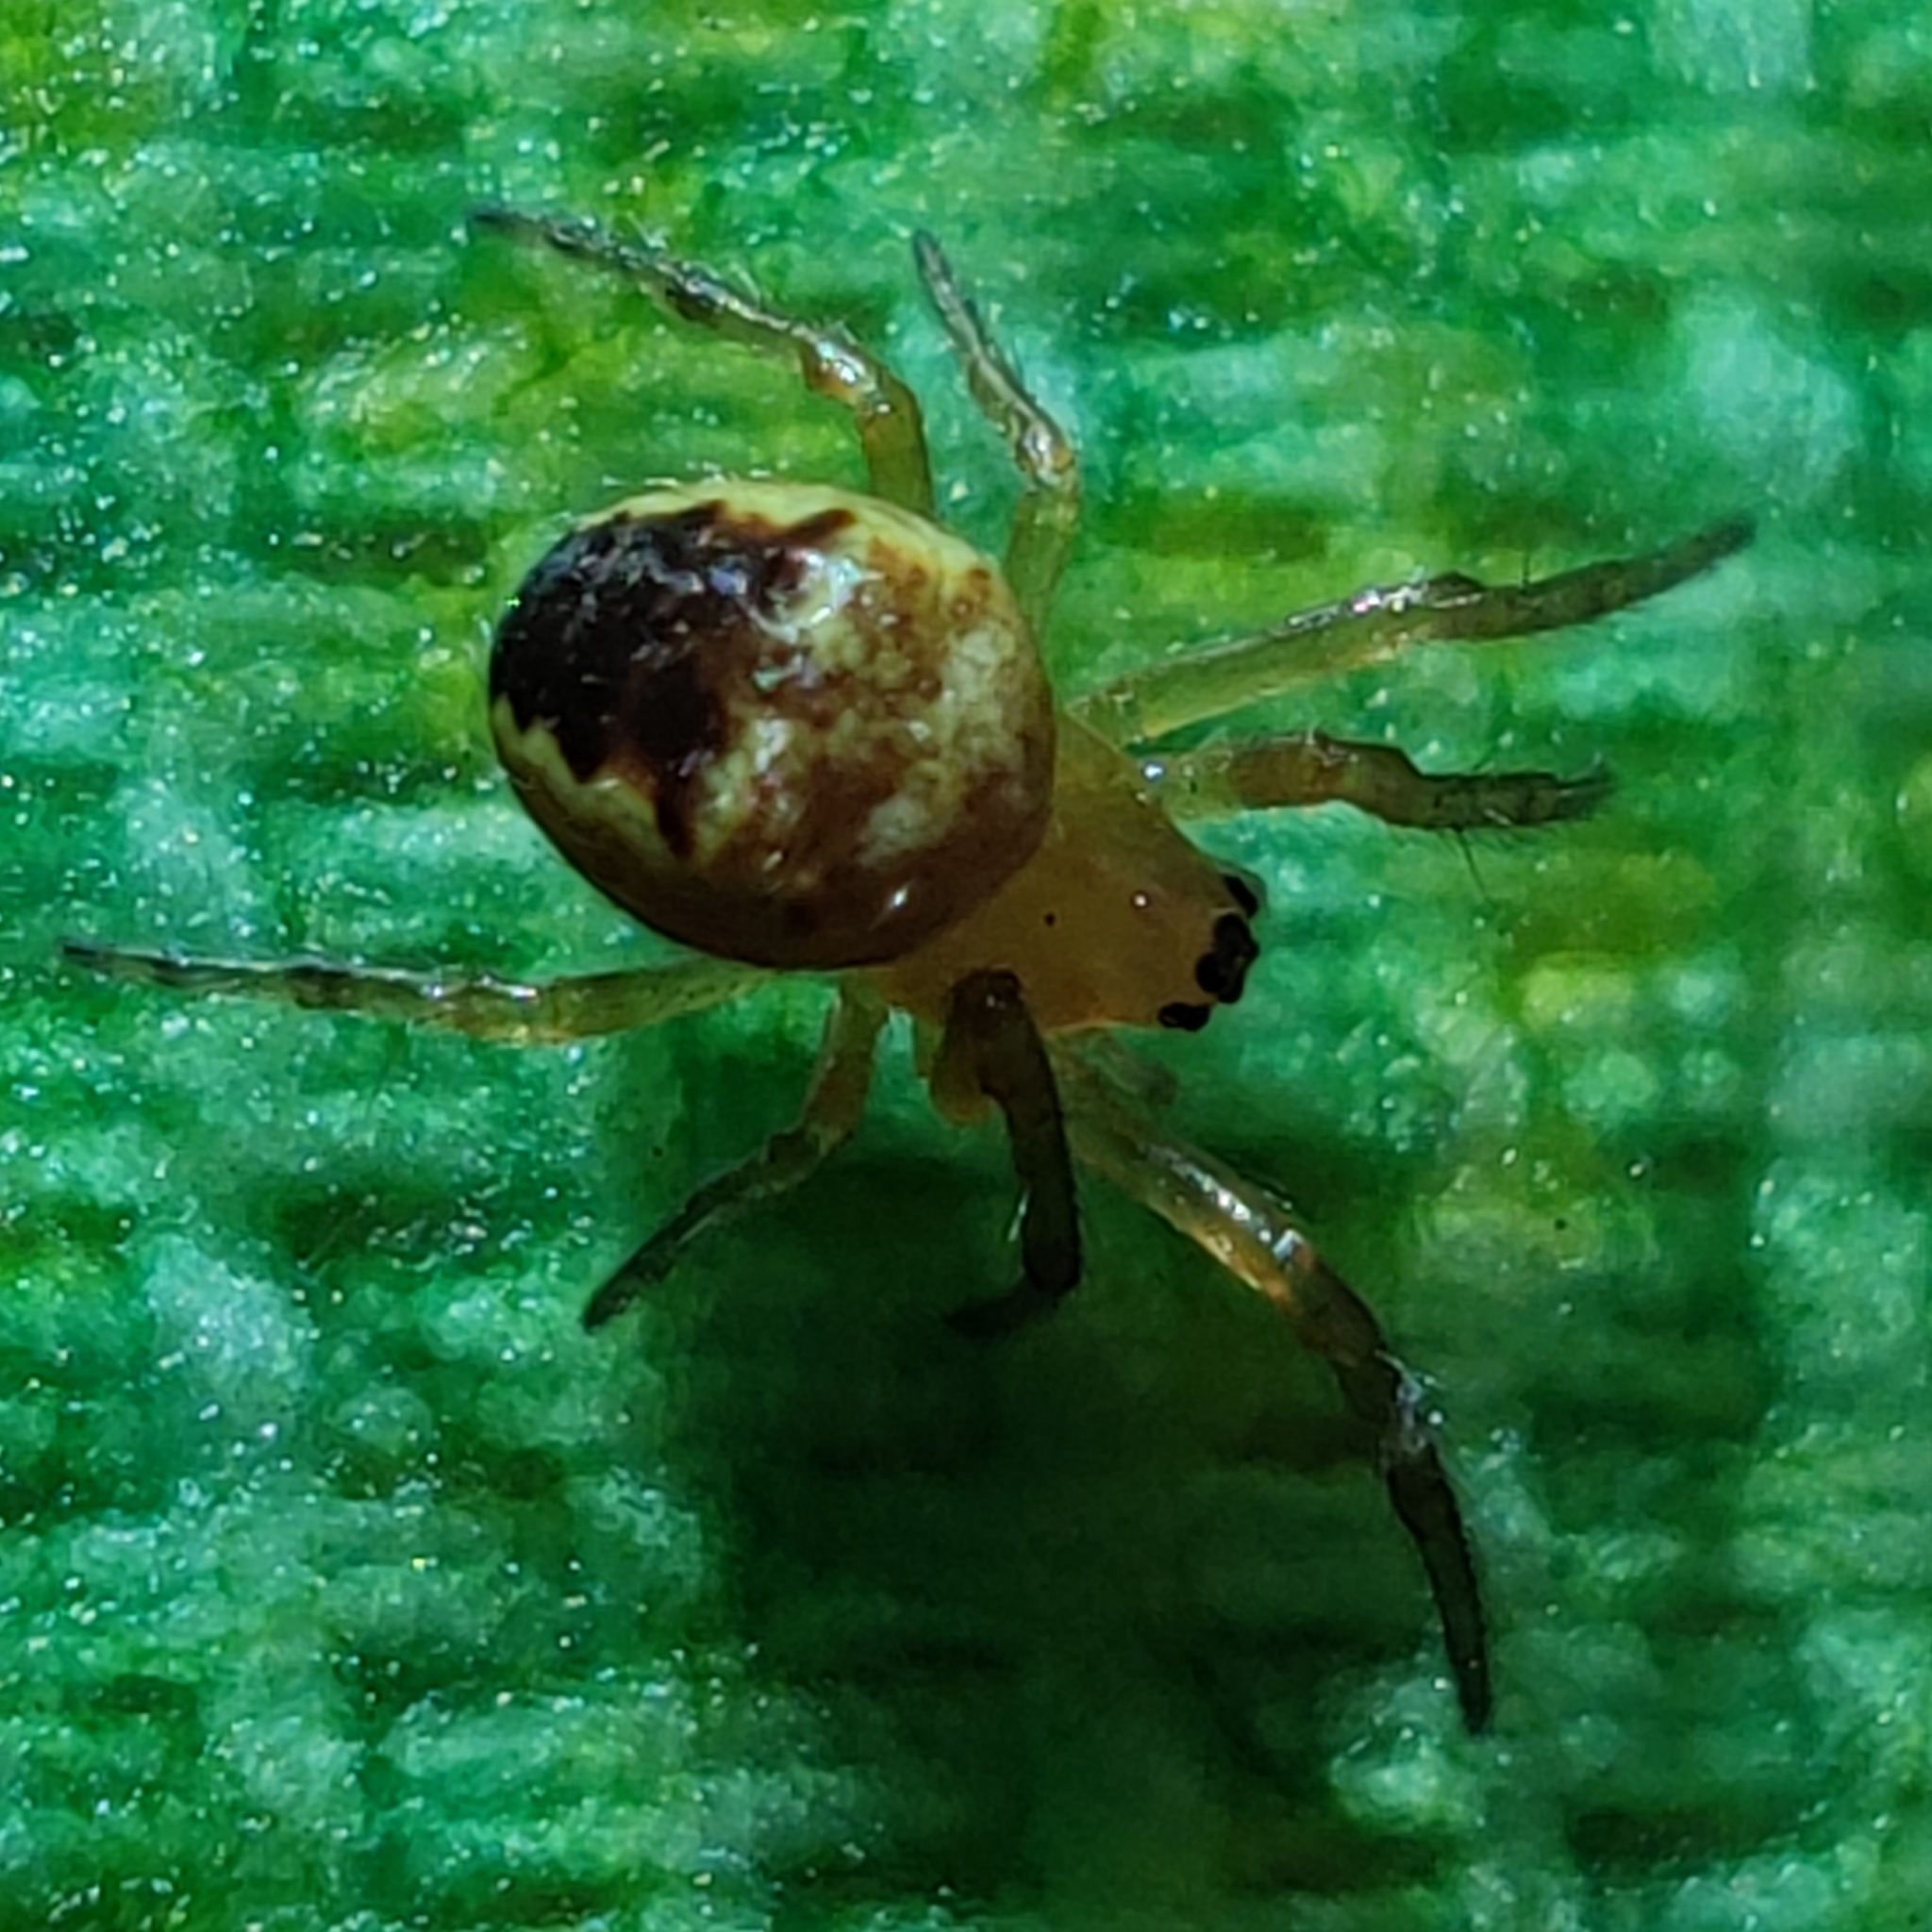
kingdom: Animalia
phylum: Arthropoda
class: Arachnida
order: Araneae
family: Araneidae
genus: Zilla
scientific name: Zilla diodia
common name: Zilla diodia
